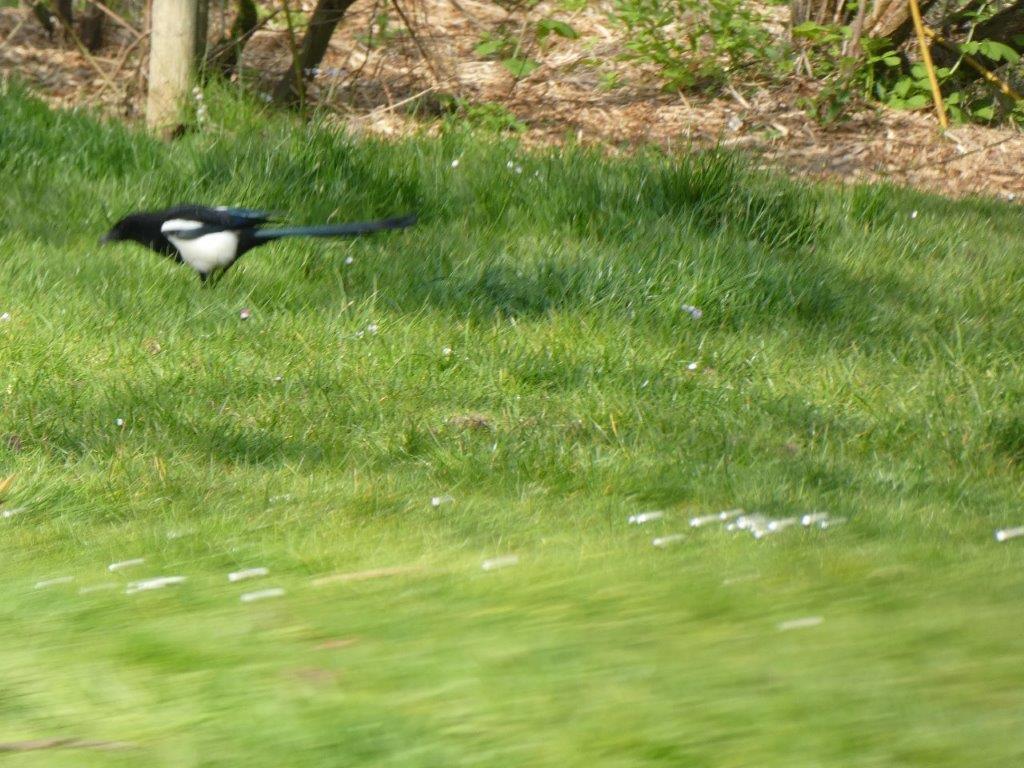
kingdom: Animalia
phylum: Chordata
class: Aves
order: Passeriformes
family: Corvidae
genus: Pica
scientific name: Pica pica
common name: Eurasian magpie
